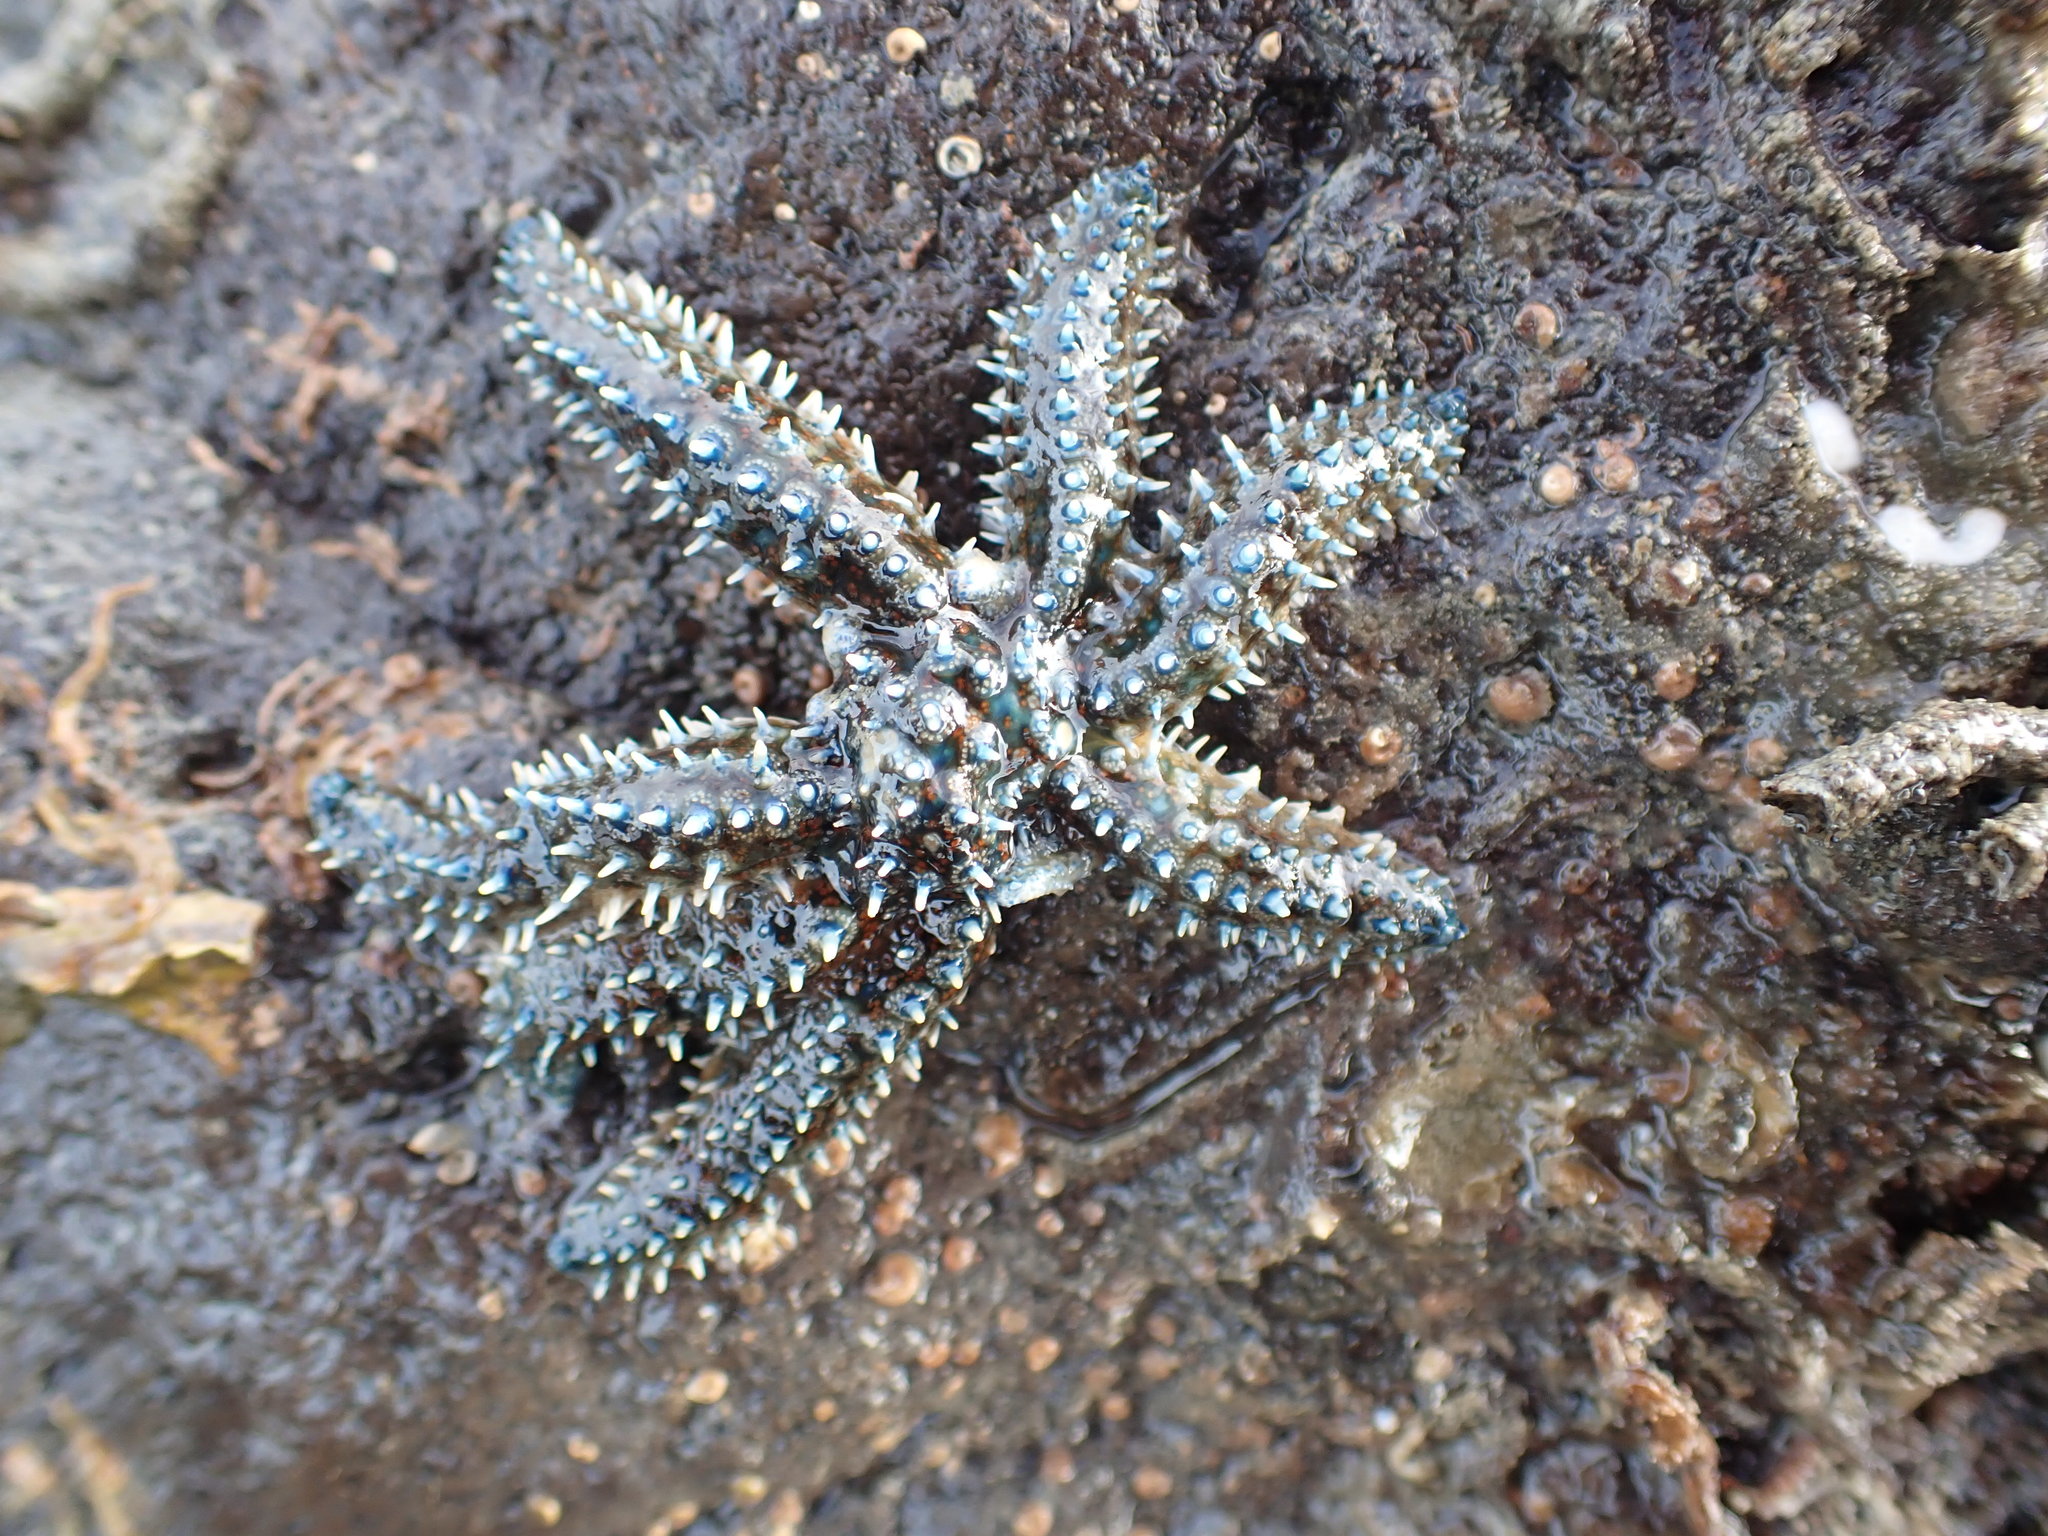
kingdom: Animalia
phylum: Echinodermata
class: Asteroidea
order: Forcipulatida
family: Asteriidae
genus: Coscinasterias
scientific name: Coscinasterias muricata
